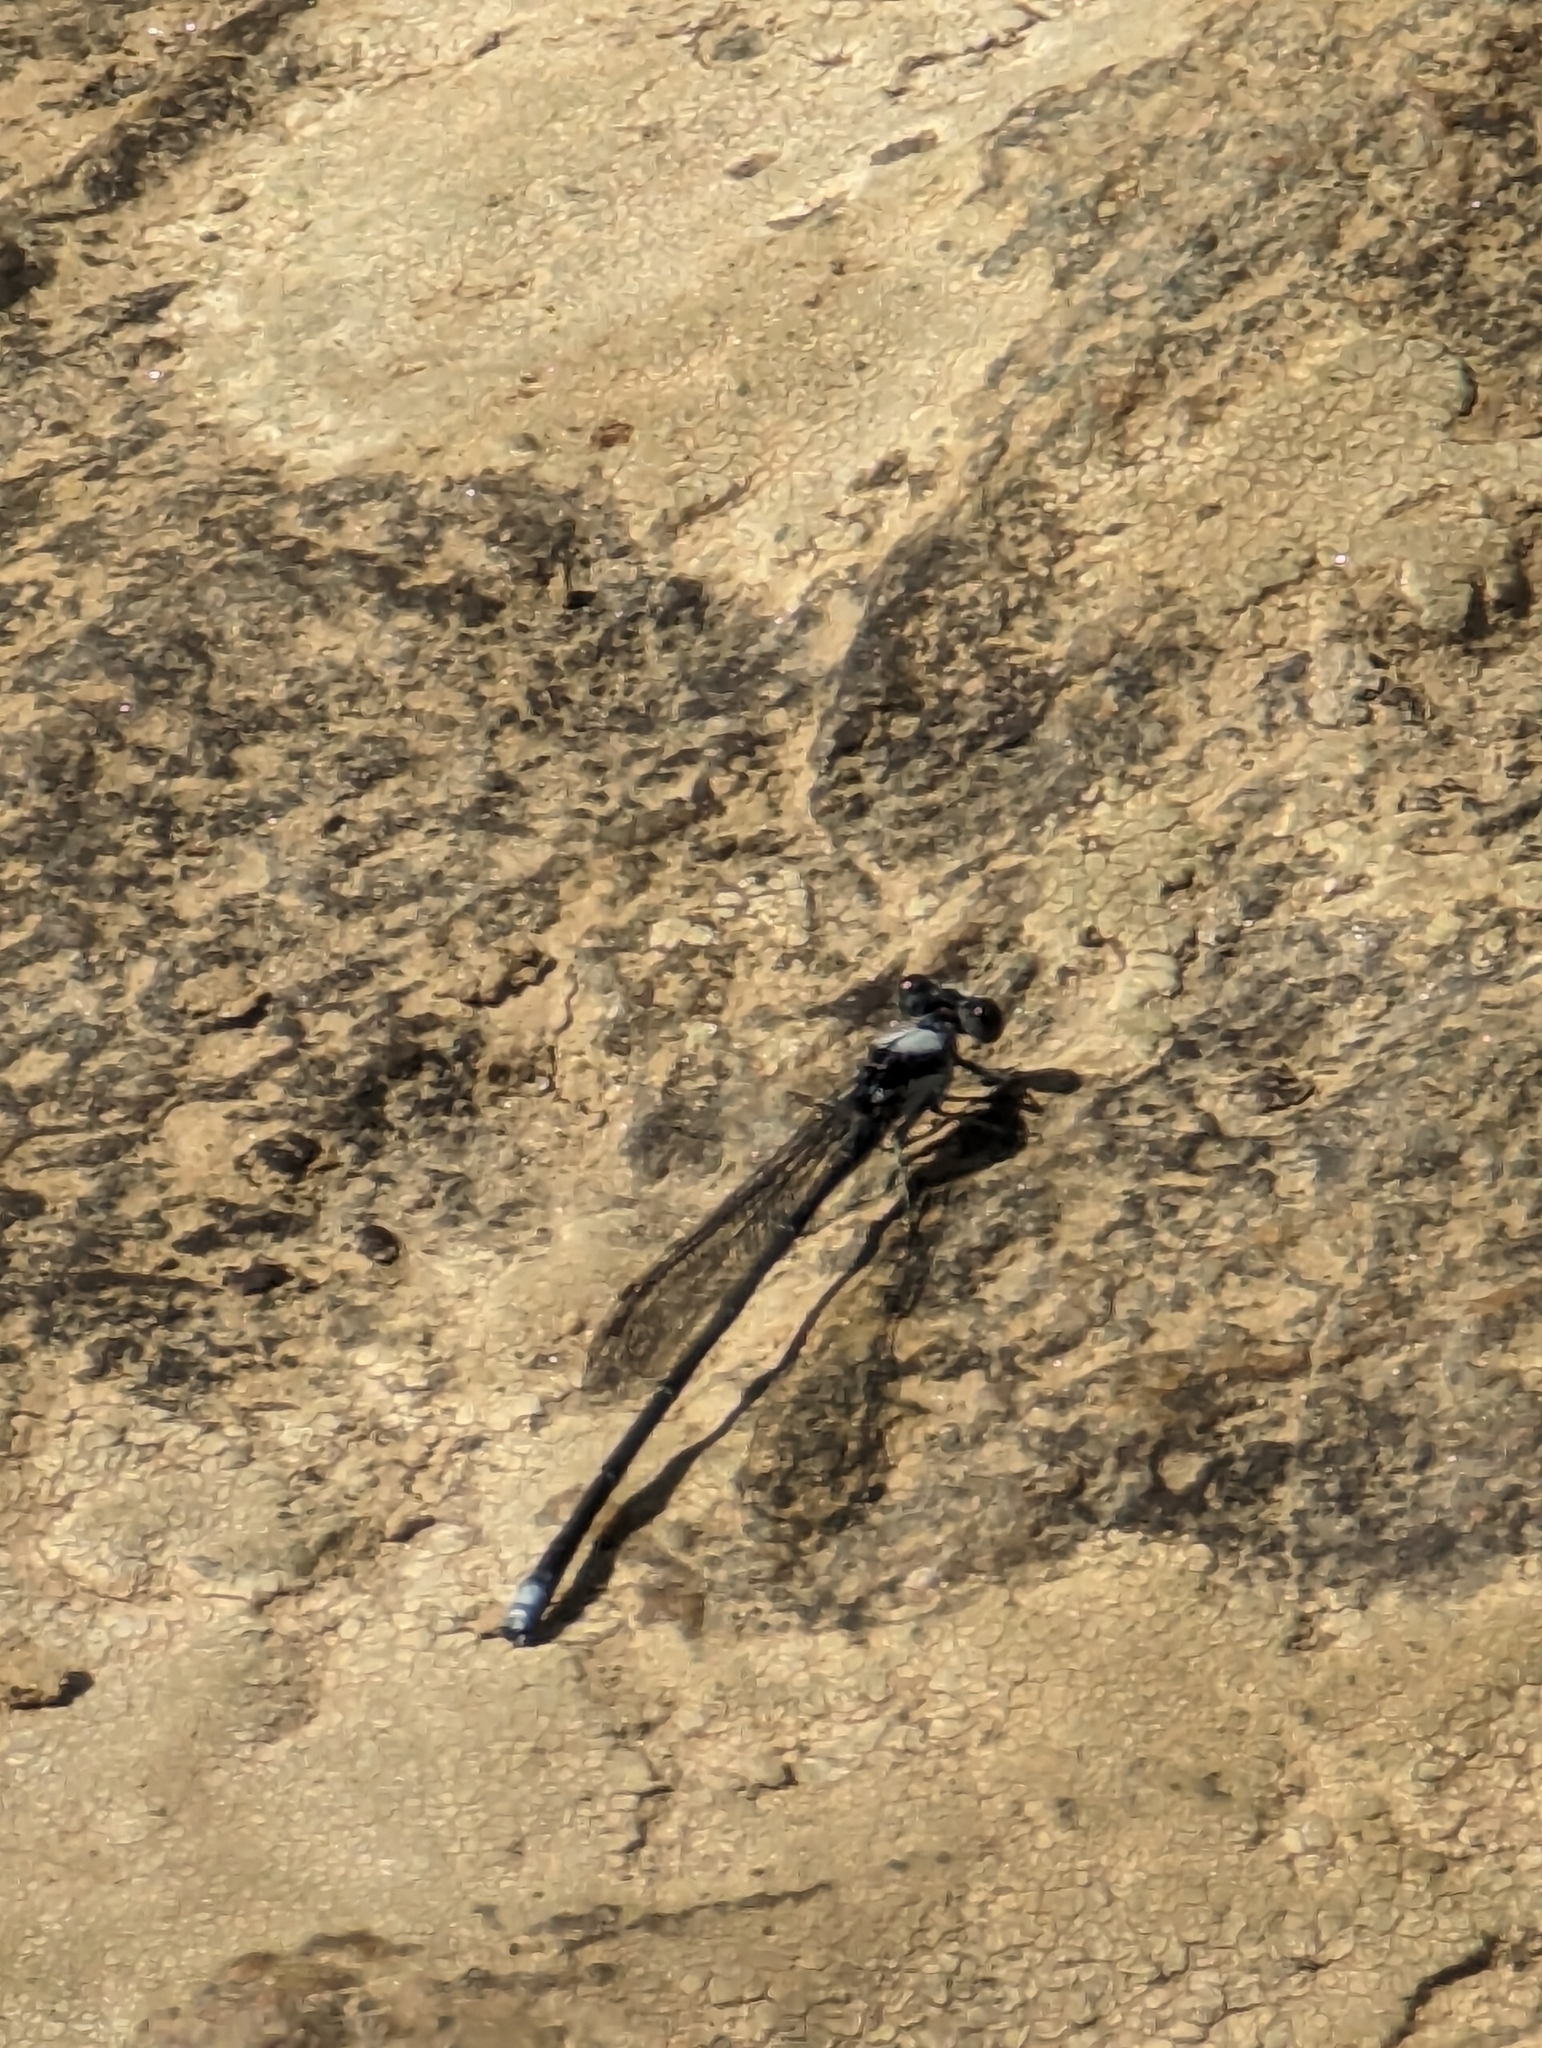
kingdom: Animalia
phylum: Arthropoda
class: Insecta
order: Odonata
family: Coenagrionidae
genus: Argia
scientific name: Argia moesta
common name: Powdered dancer
